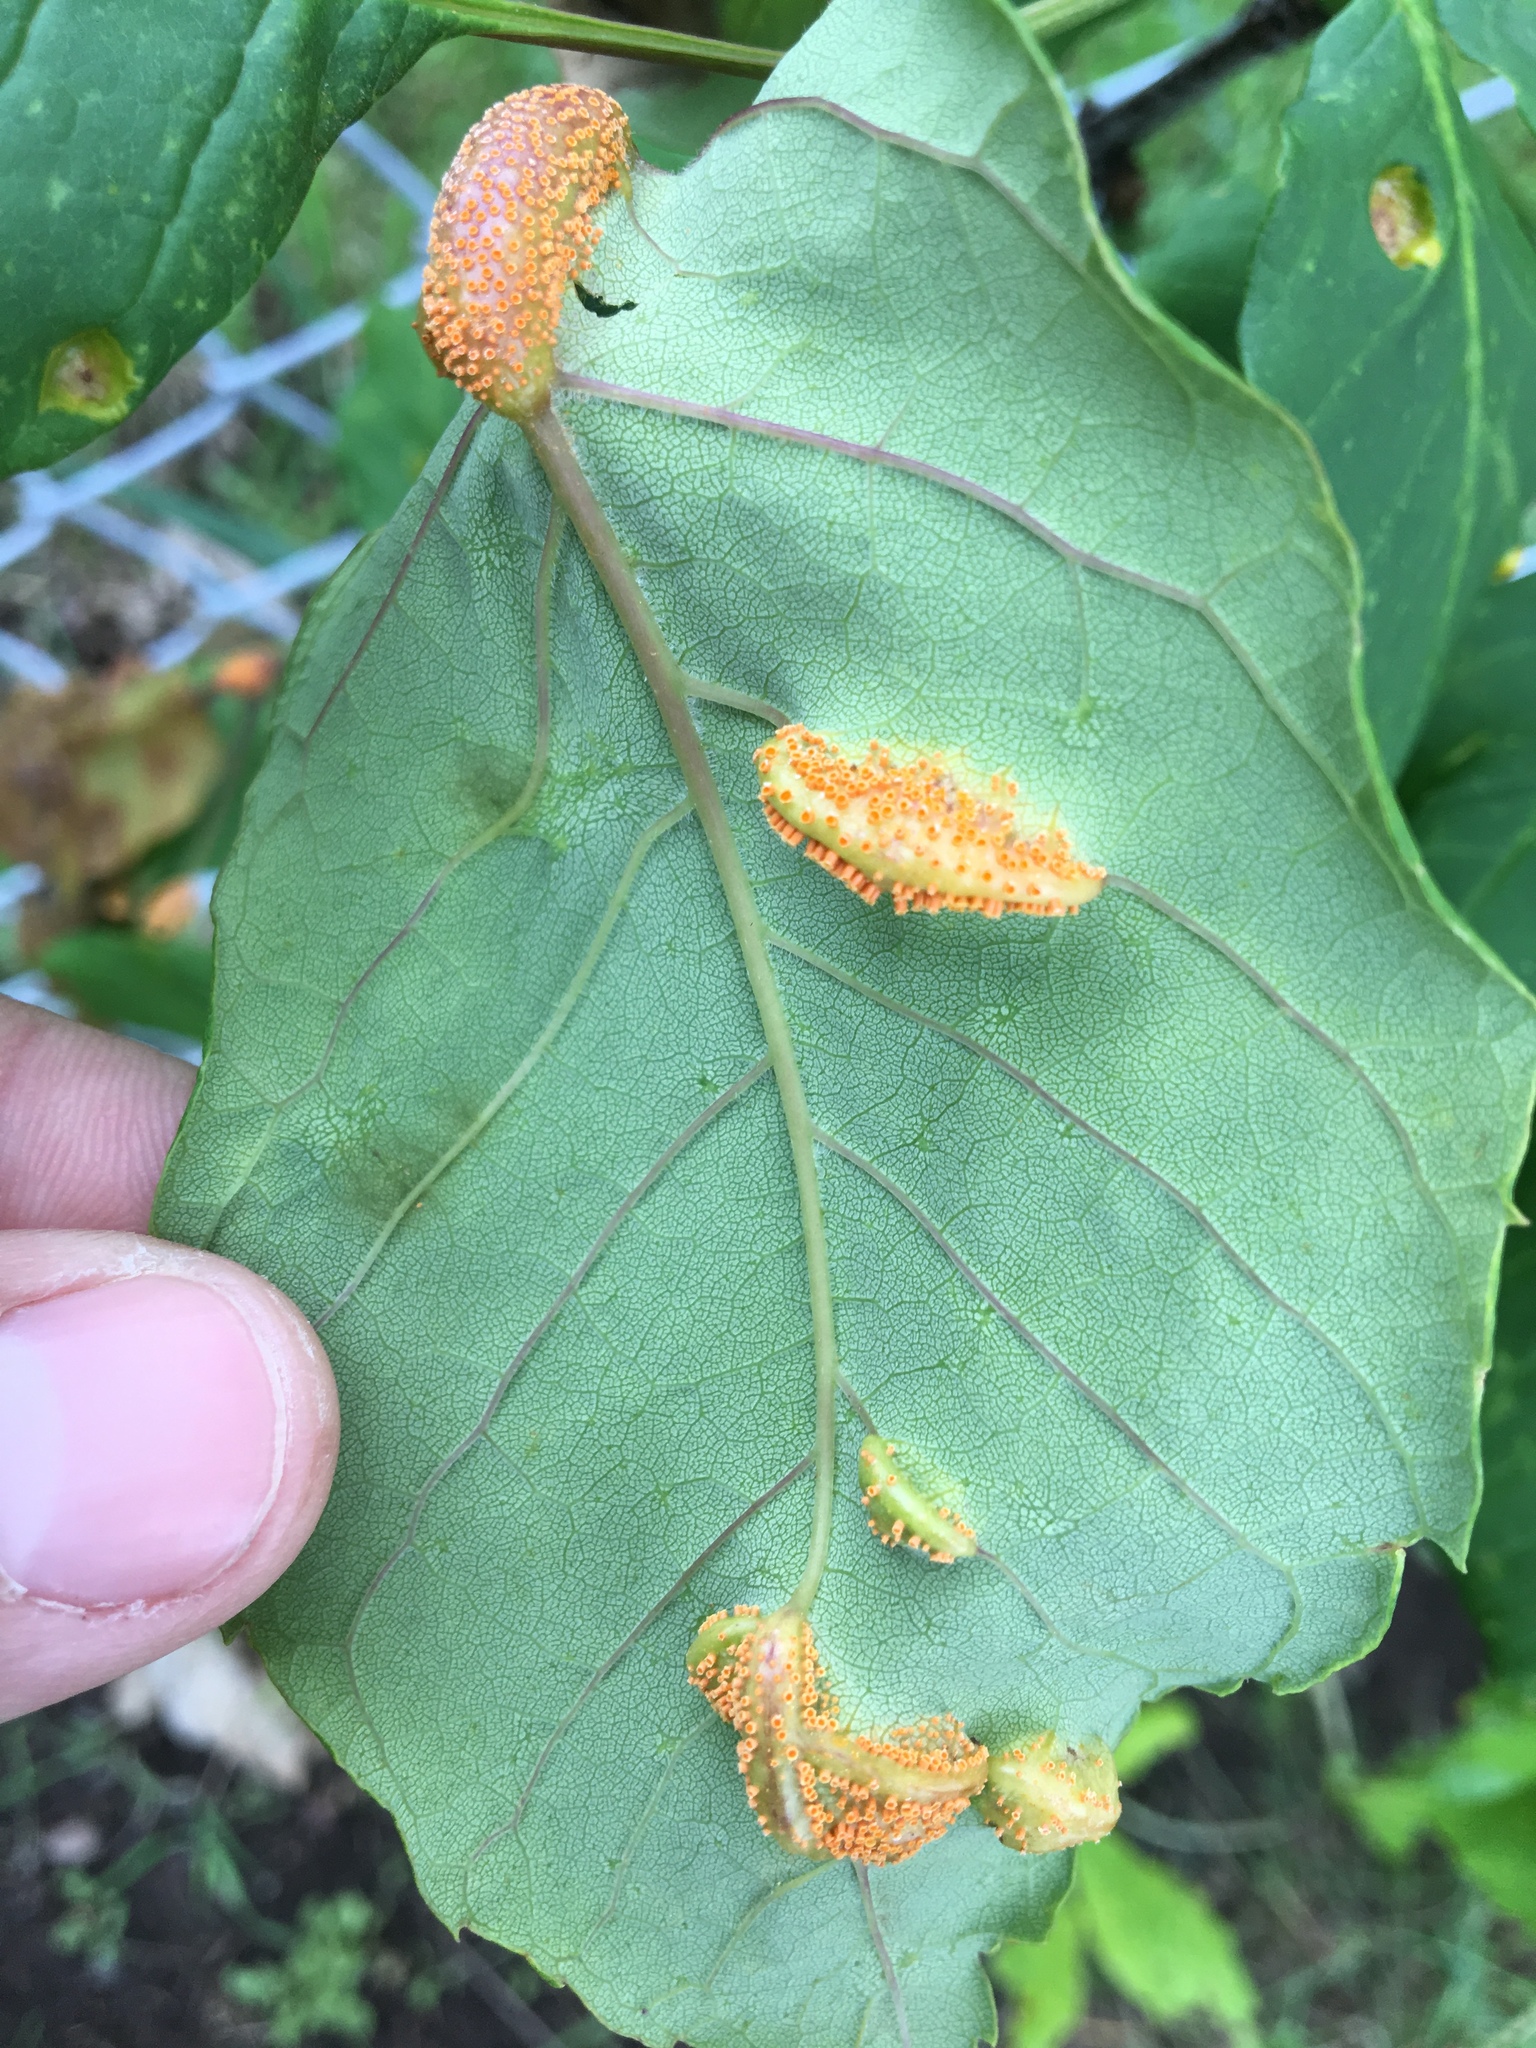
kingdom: Fungi
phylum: Basidiomycota
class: Pucciniomycetes
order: Pucciniales
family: Pucciniaceae
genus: Puccinia
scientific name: Puccinia sparganioidis
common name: Ash rust
